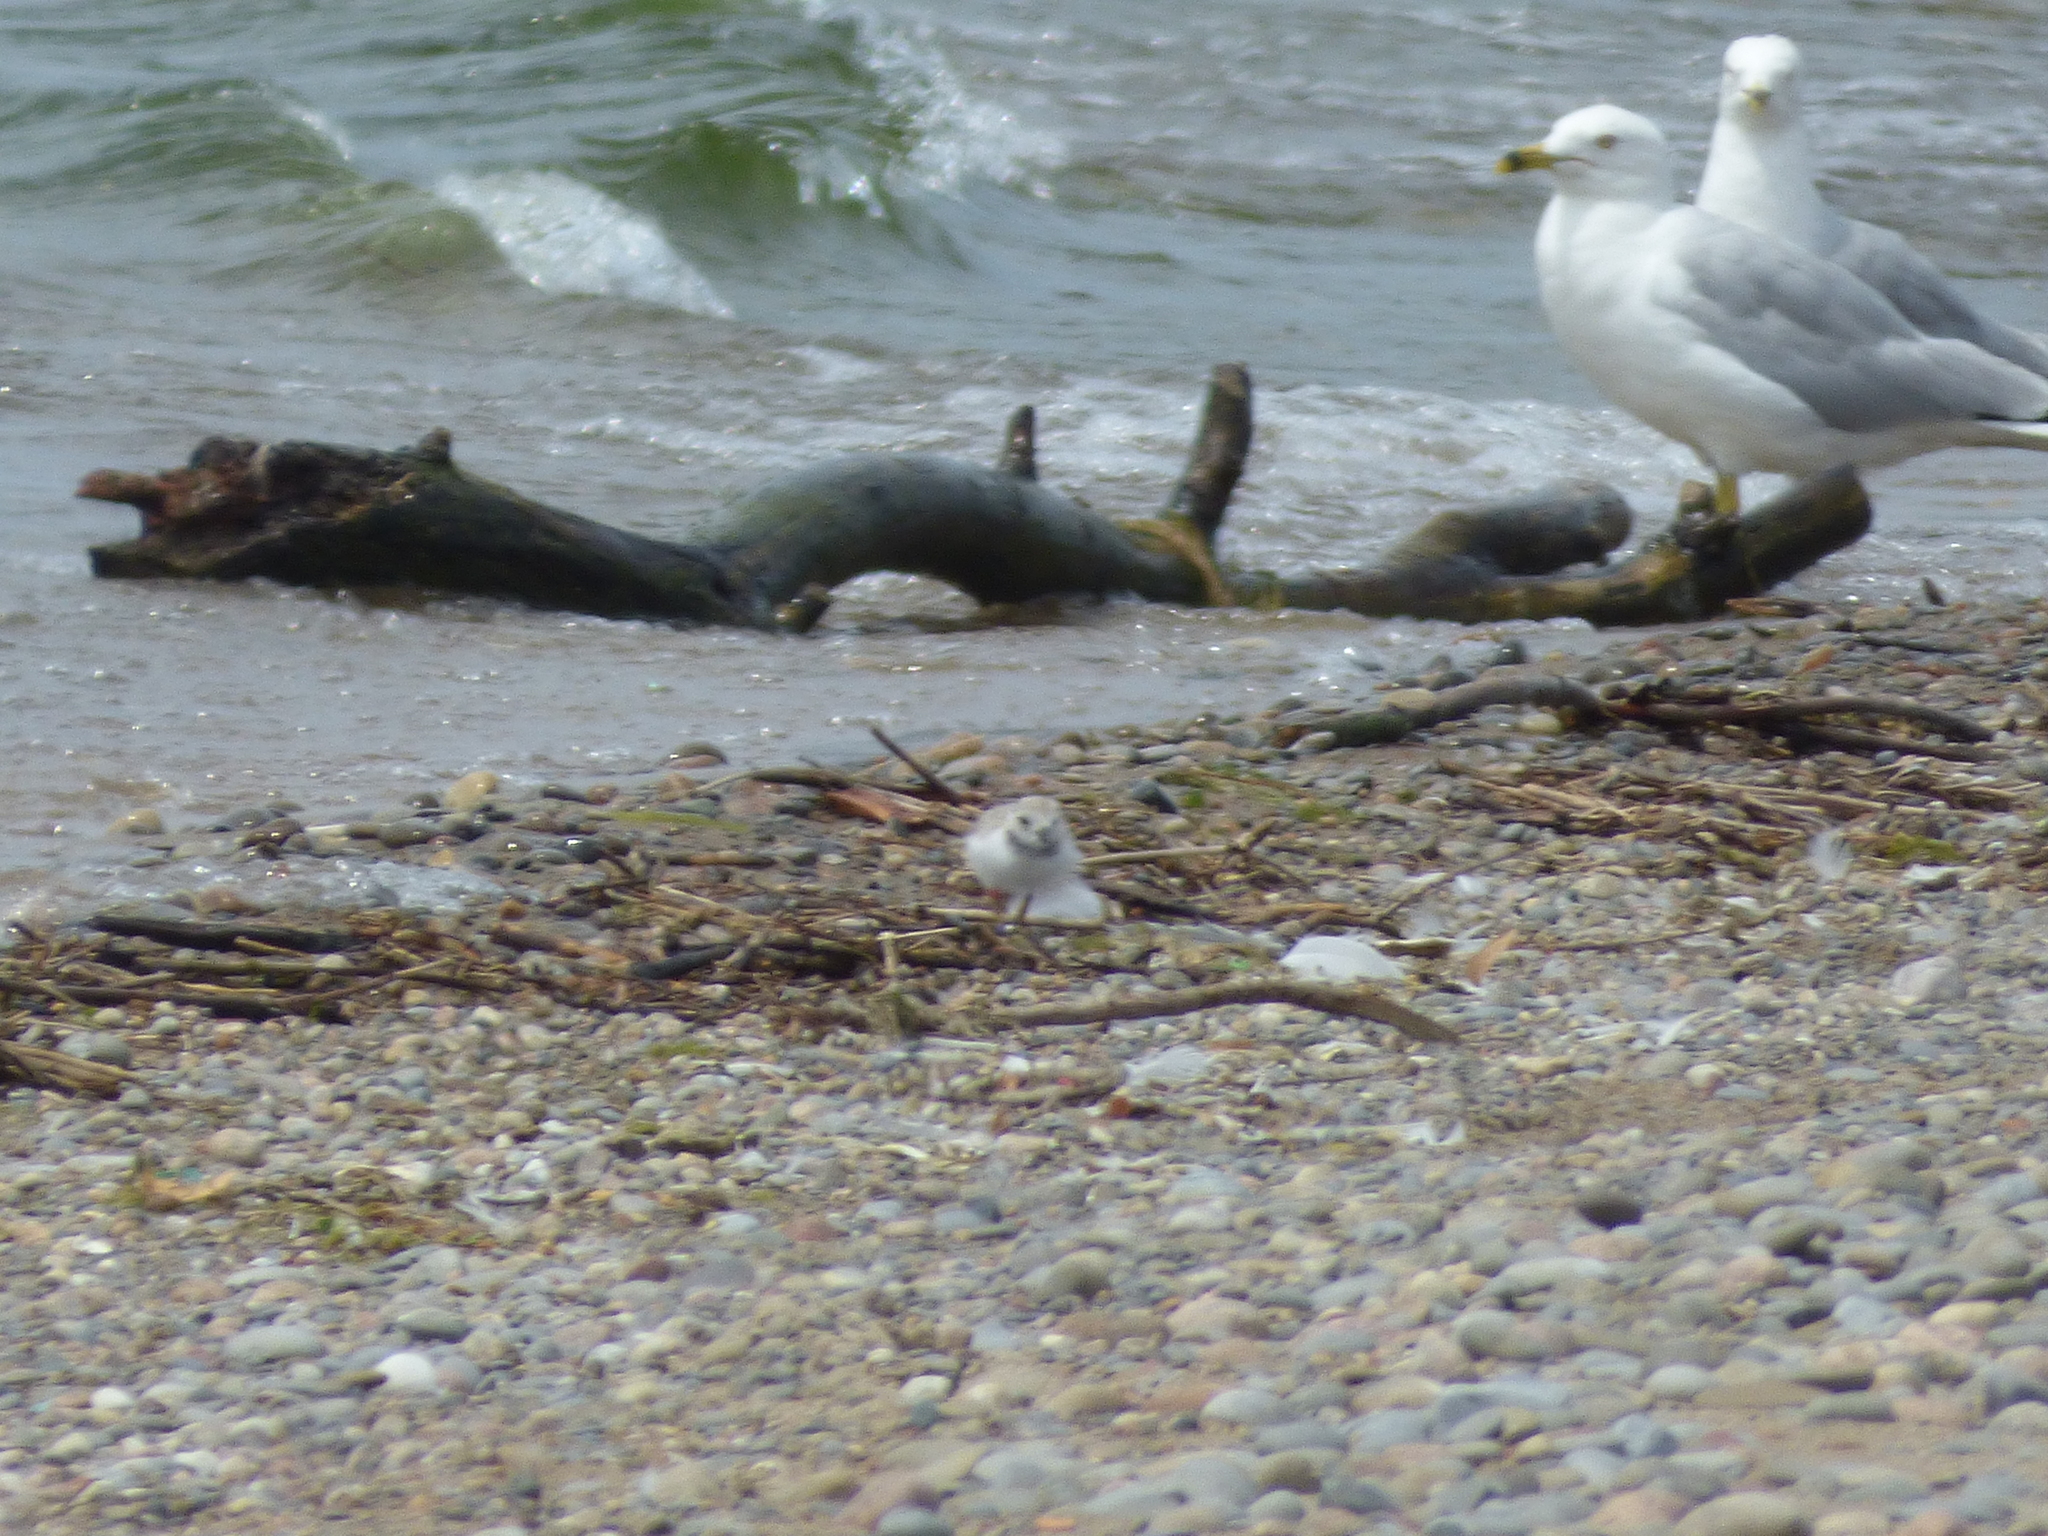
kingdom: Animalia
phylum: Chordata
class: Aves
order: Charadriiformes
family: Laridae
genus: Larus
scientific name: Larus delawarensis
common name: Ring-billed gull
